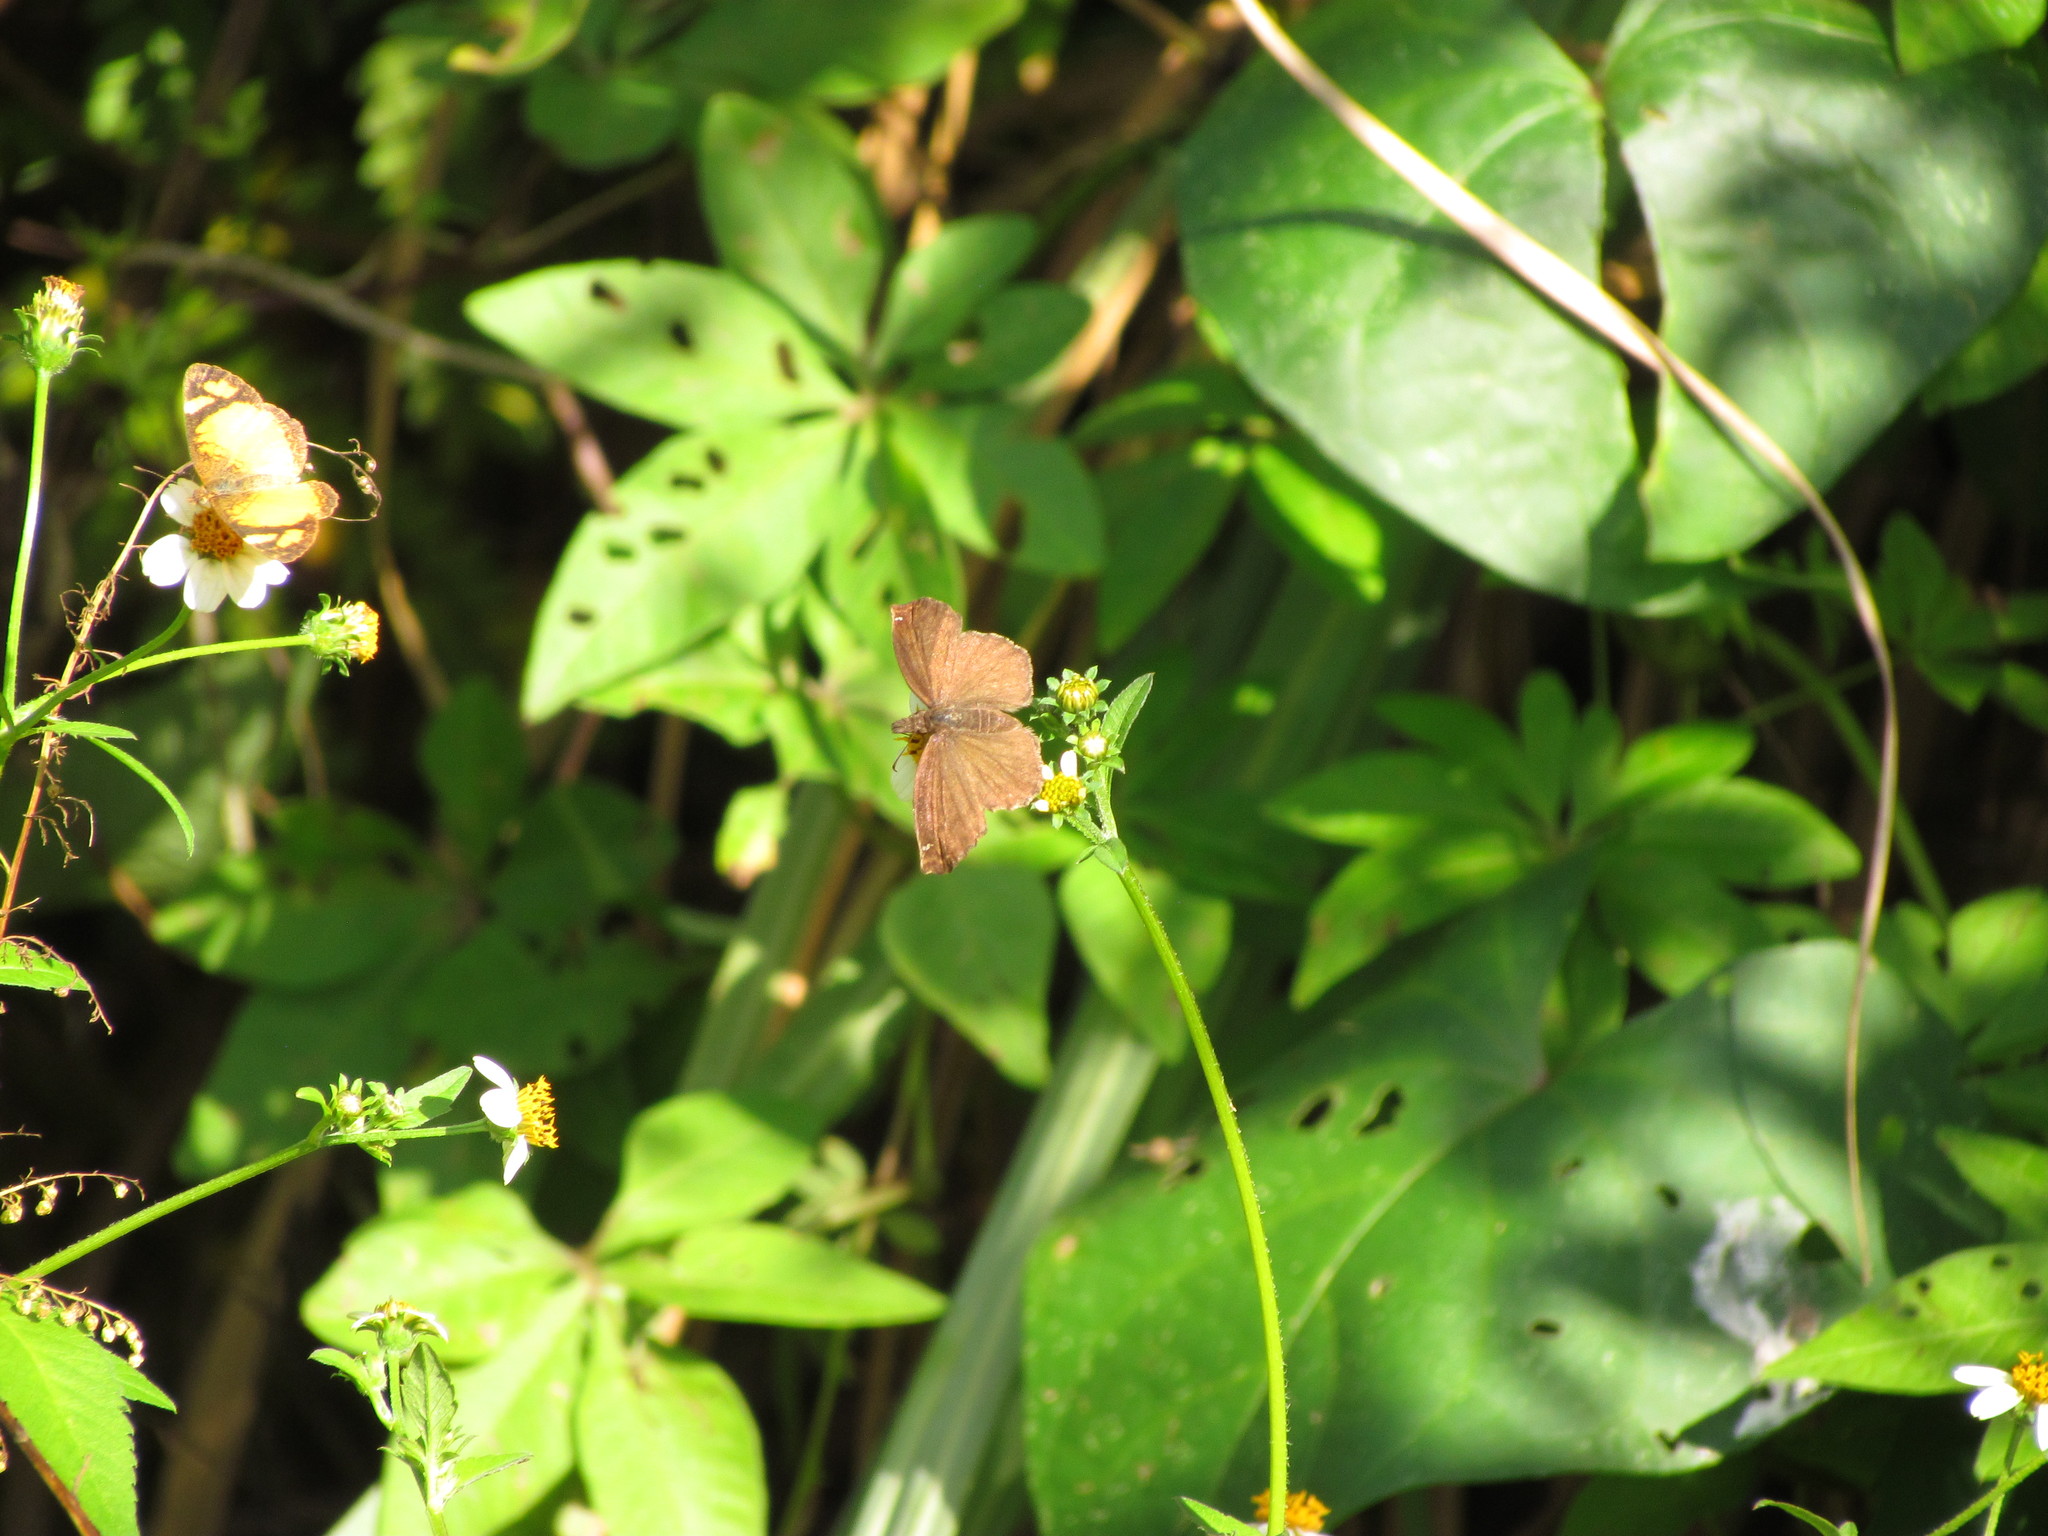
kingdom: Animalia
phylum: Arthropoda
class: Insecta
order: Lepidoptera
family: Hesperiidae
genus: Anisochoria
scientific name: Anisochoria sublimbata
